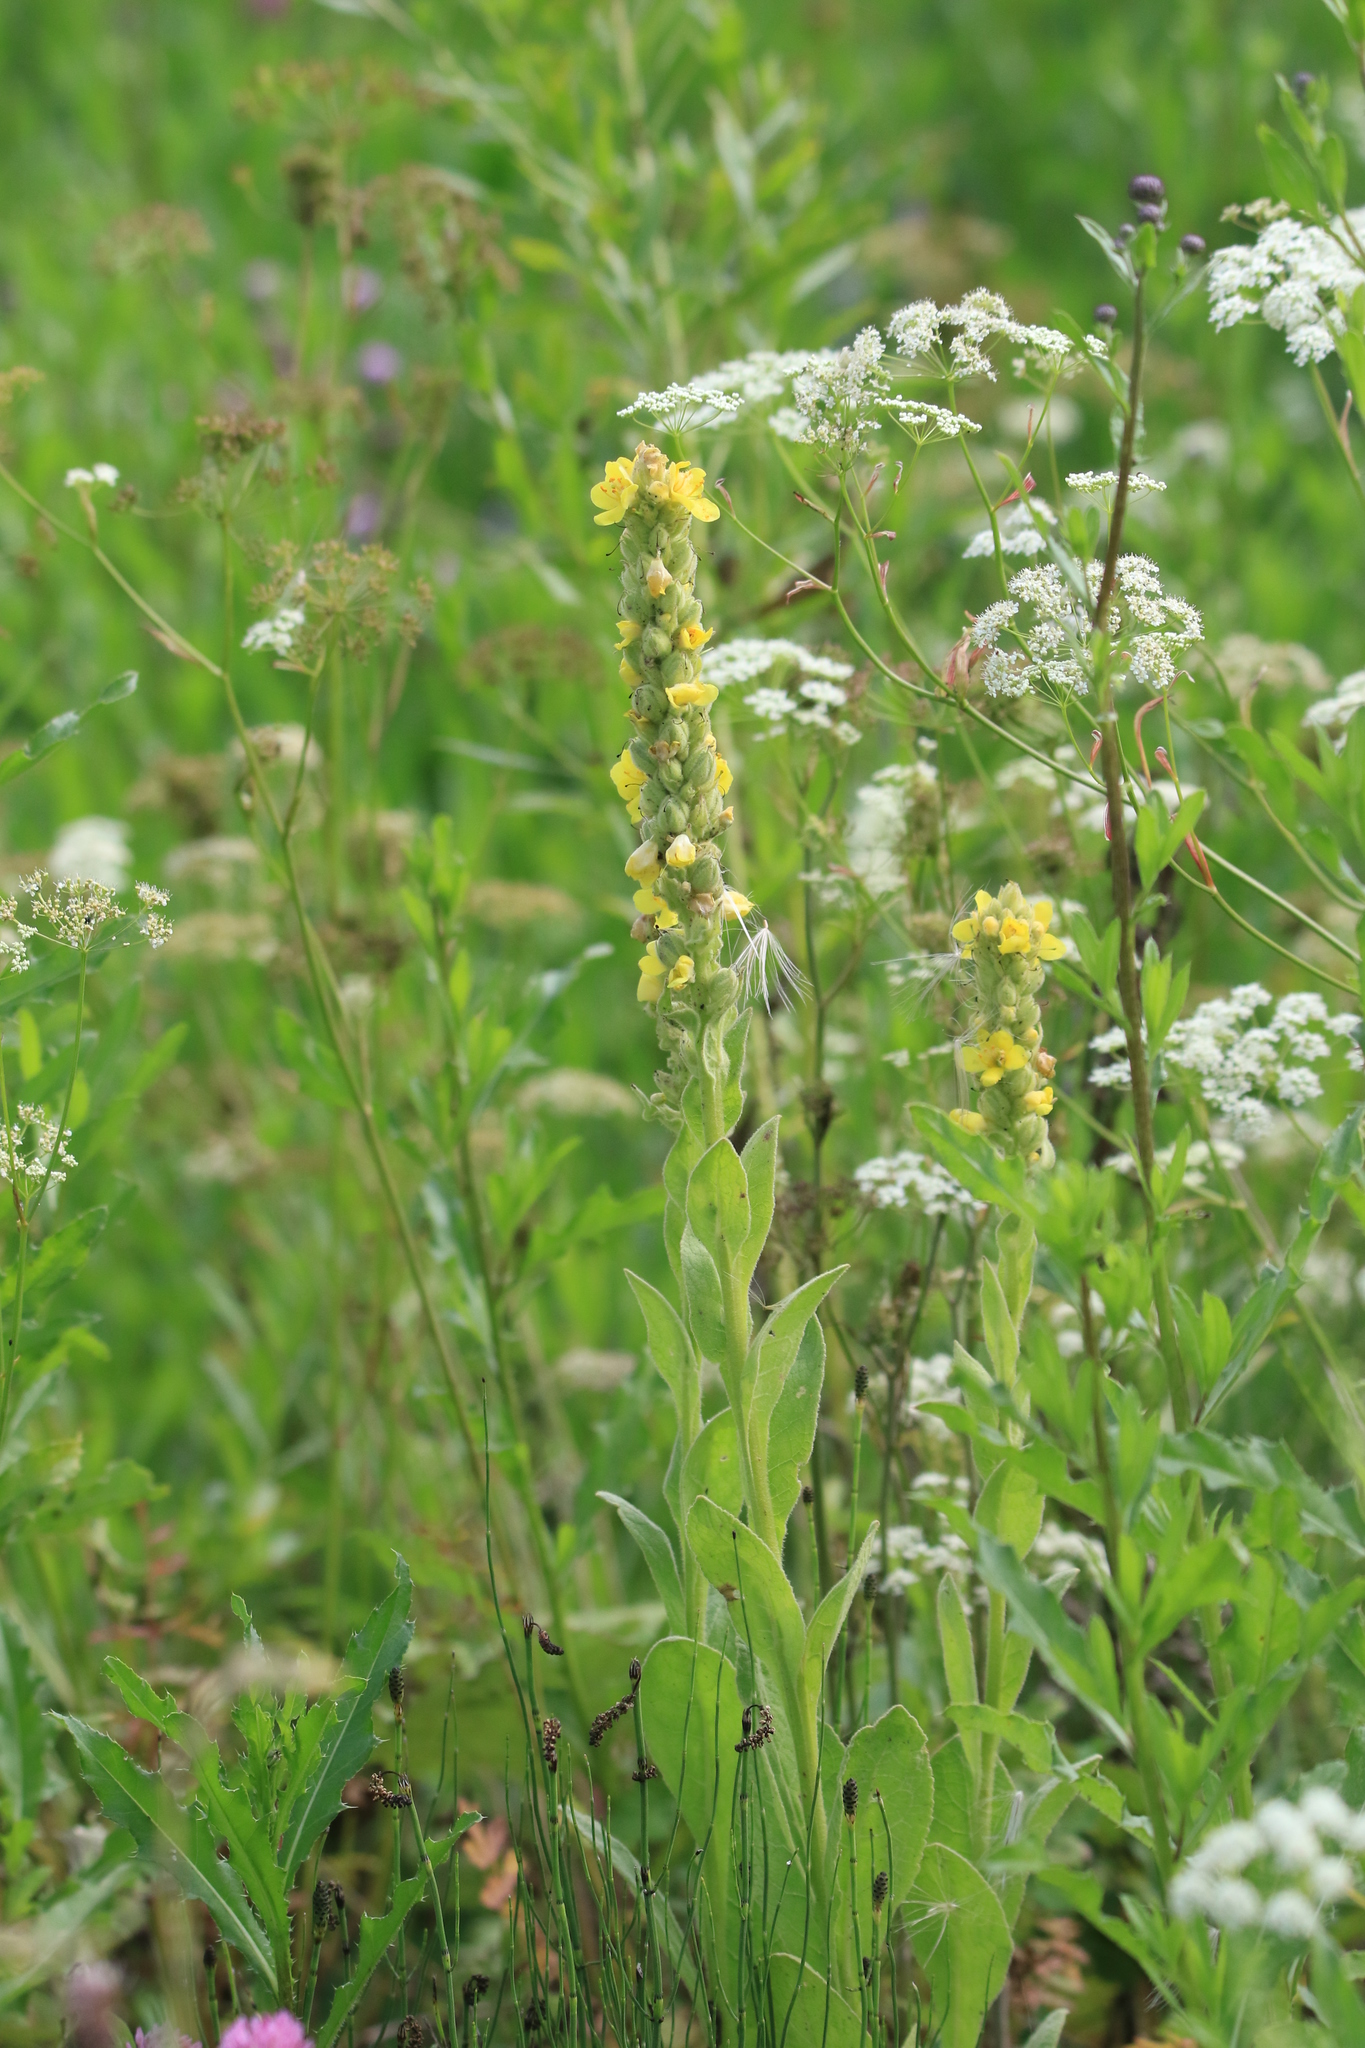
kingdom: Plantae
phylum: Tracheophyta
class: Magnoliopsida
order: Lamiales
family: Scrophulariaceae
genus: Verbascum
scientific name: Verbascum thapsus
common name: Common mullein
